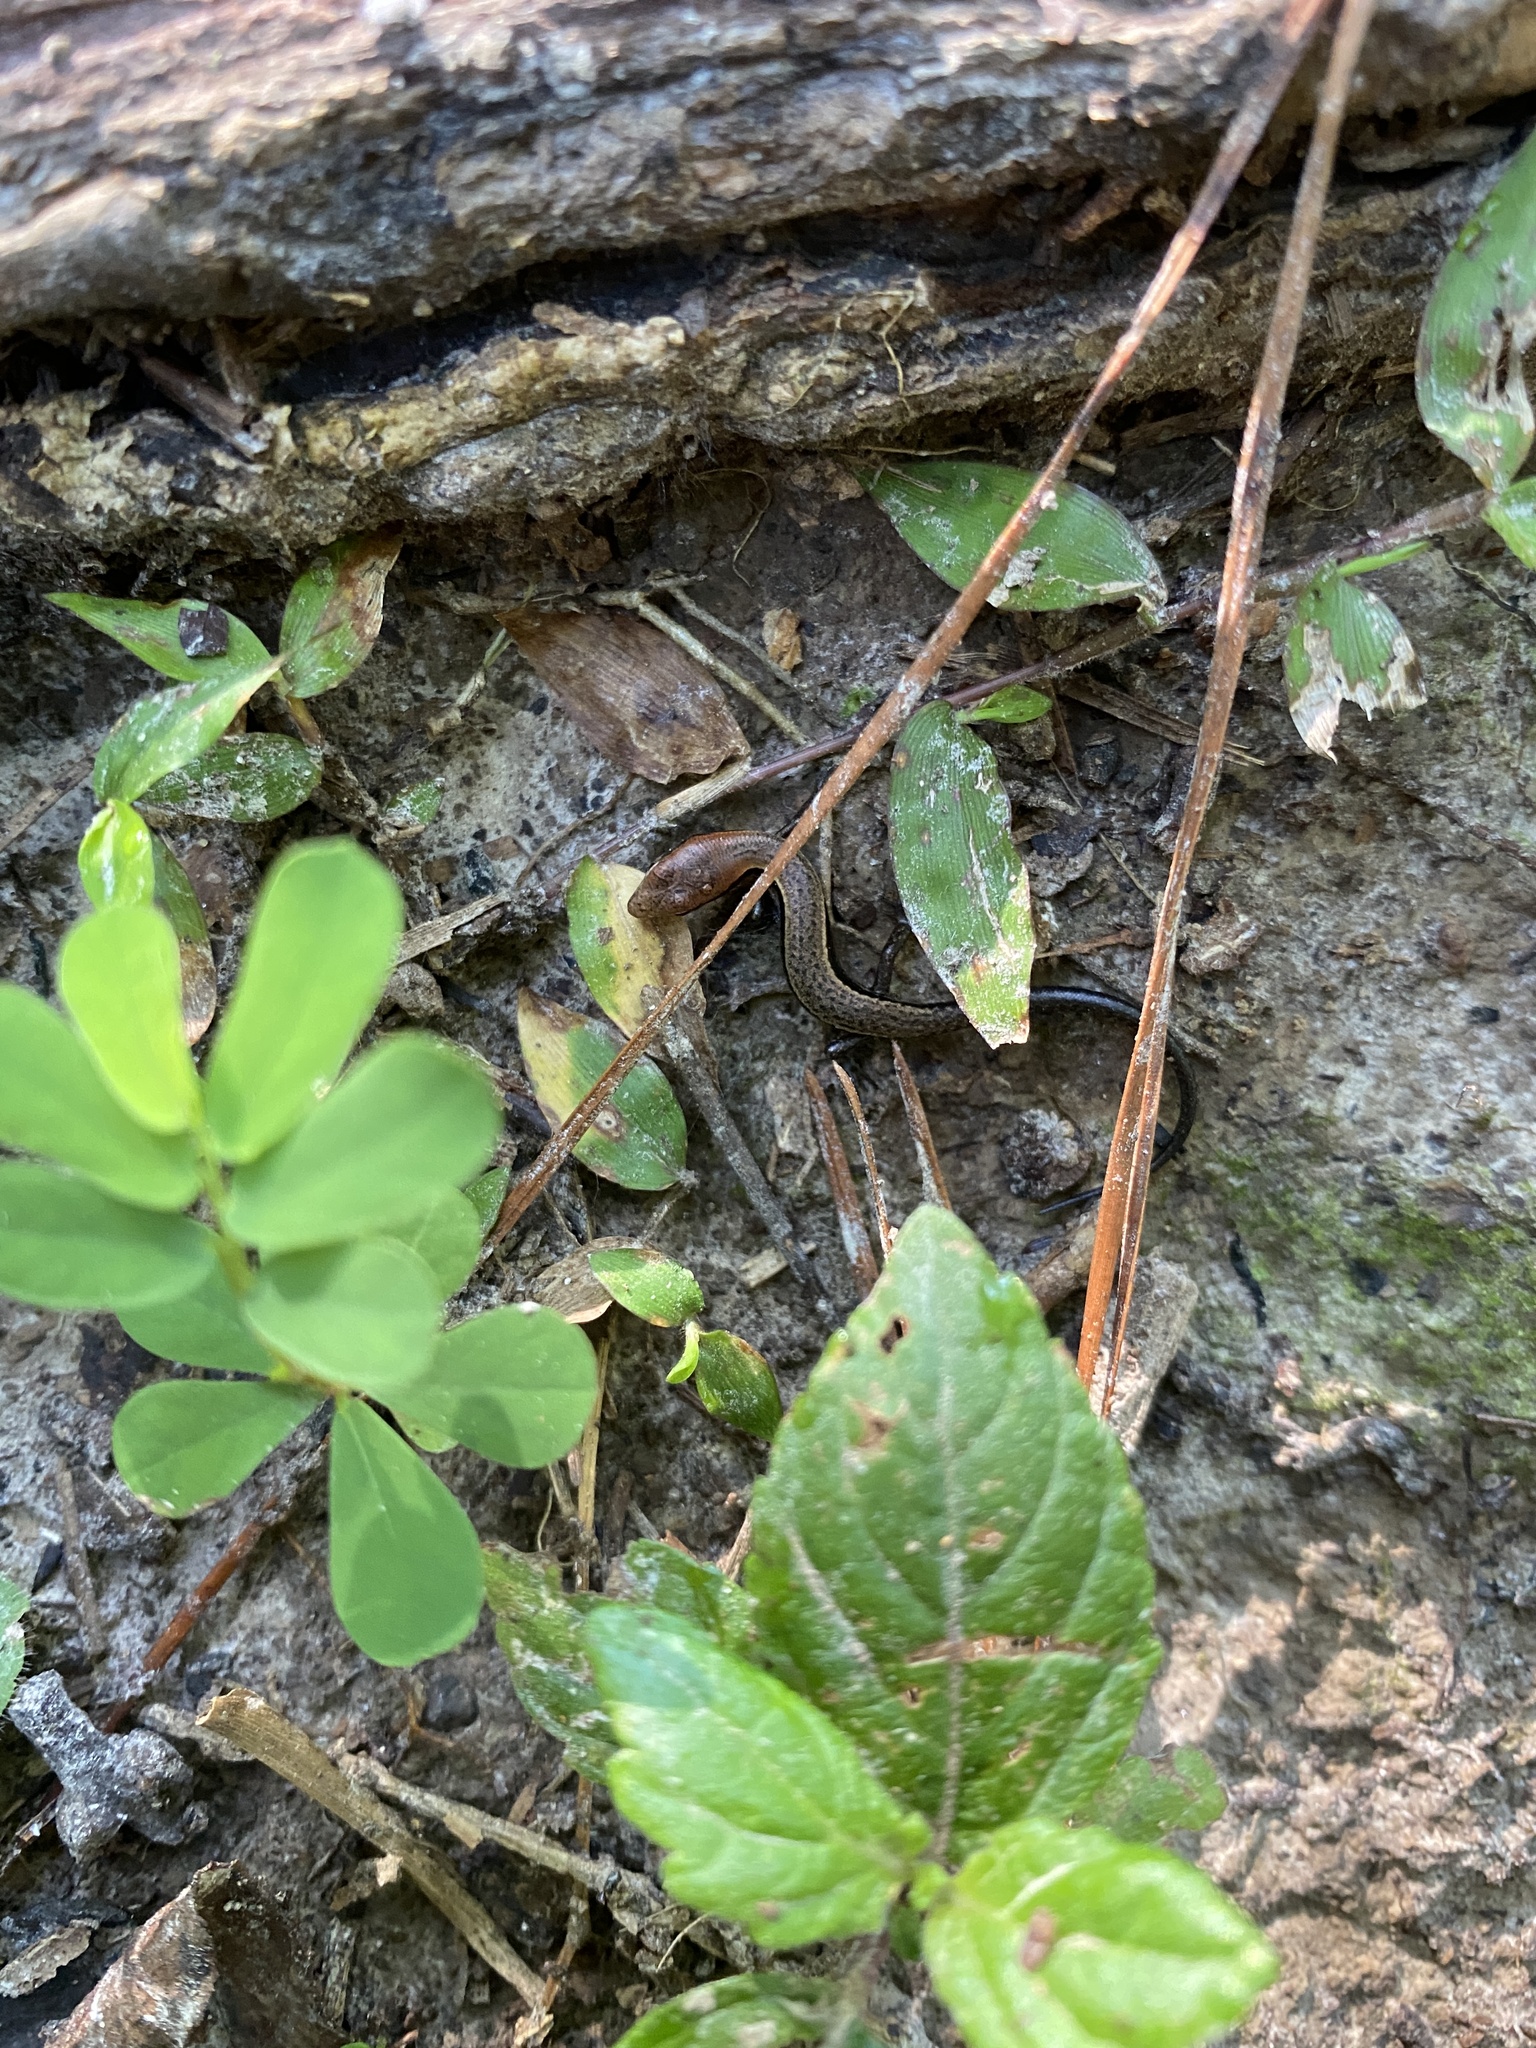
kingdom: Animalia
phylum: Chordata
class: Squamata
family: Scincidae
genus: Scincella
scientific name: Scincella lateralis
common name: Ground skink
